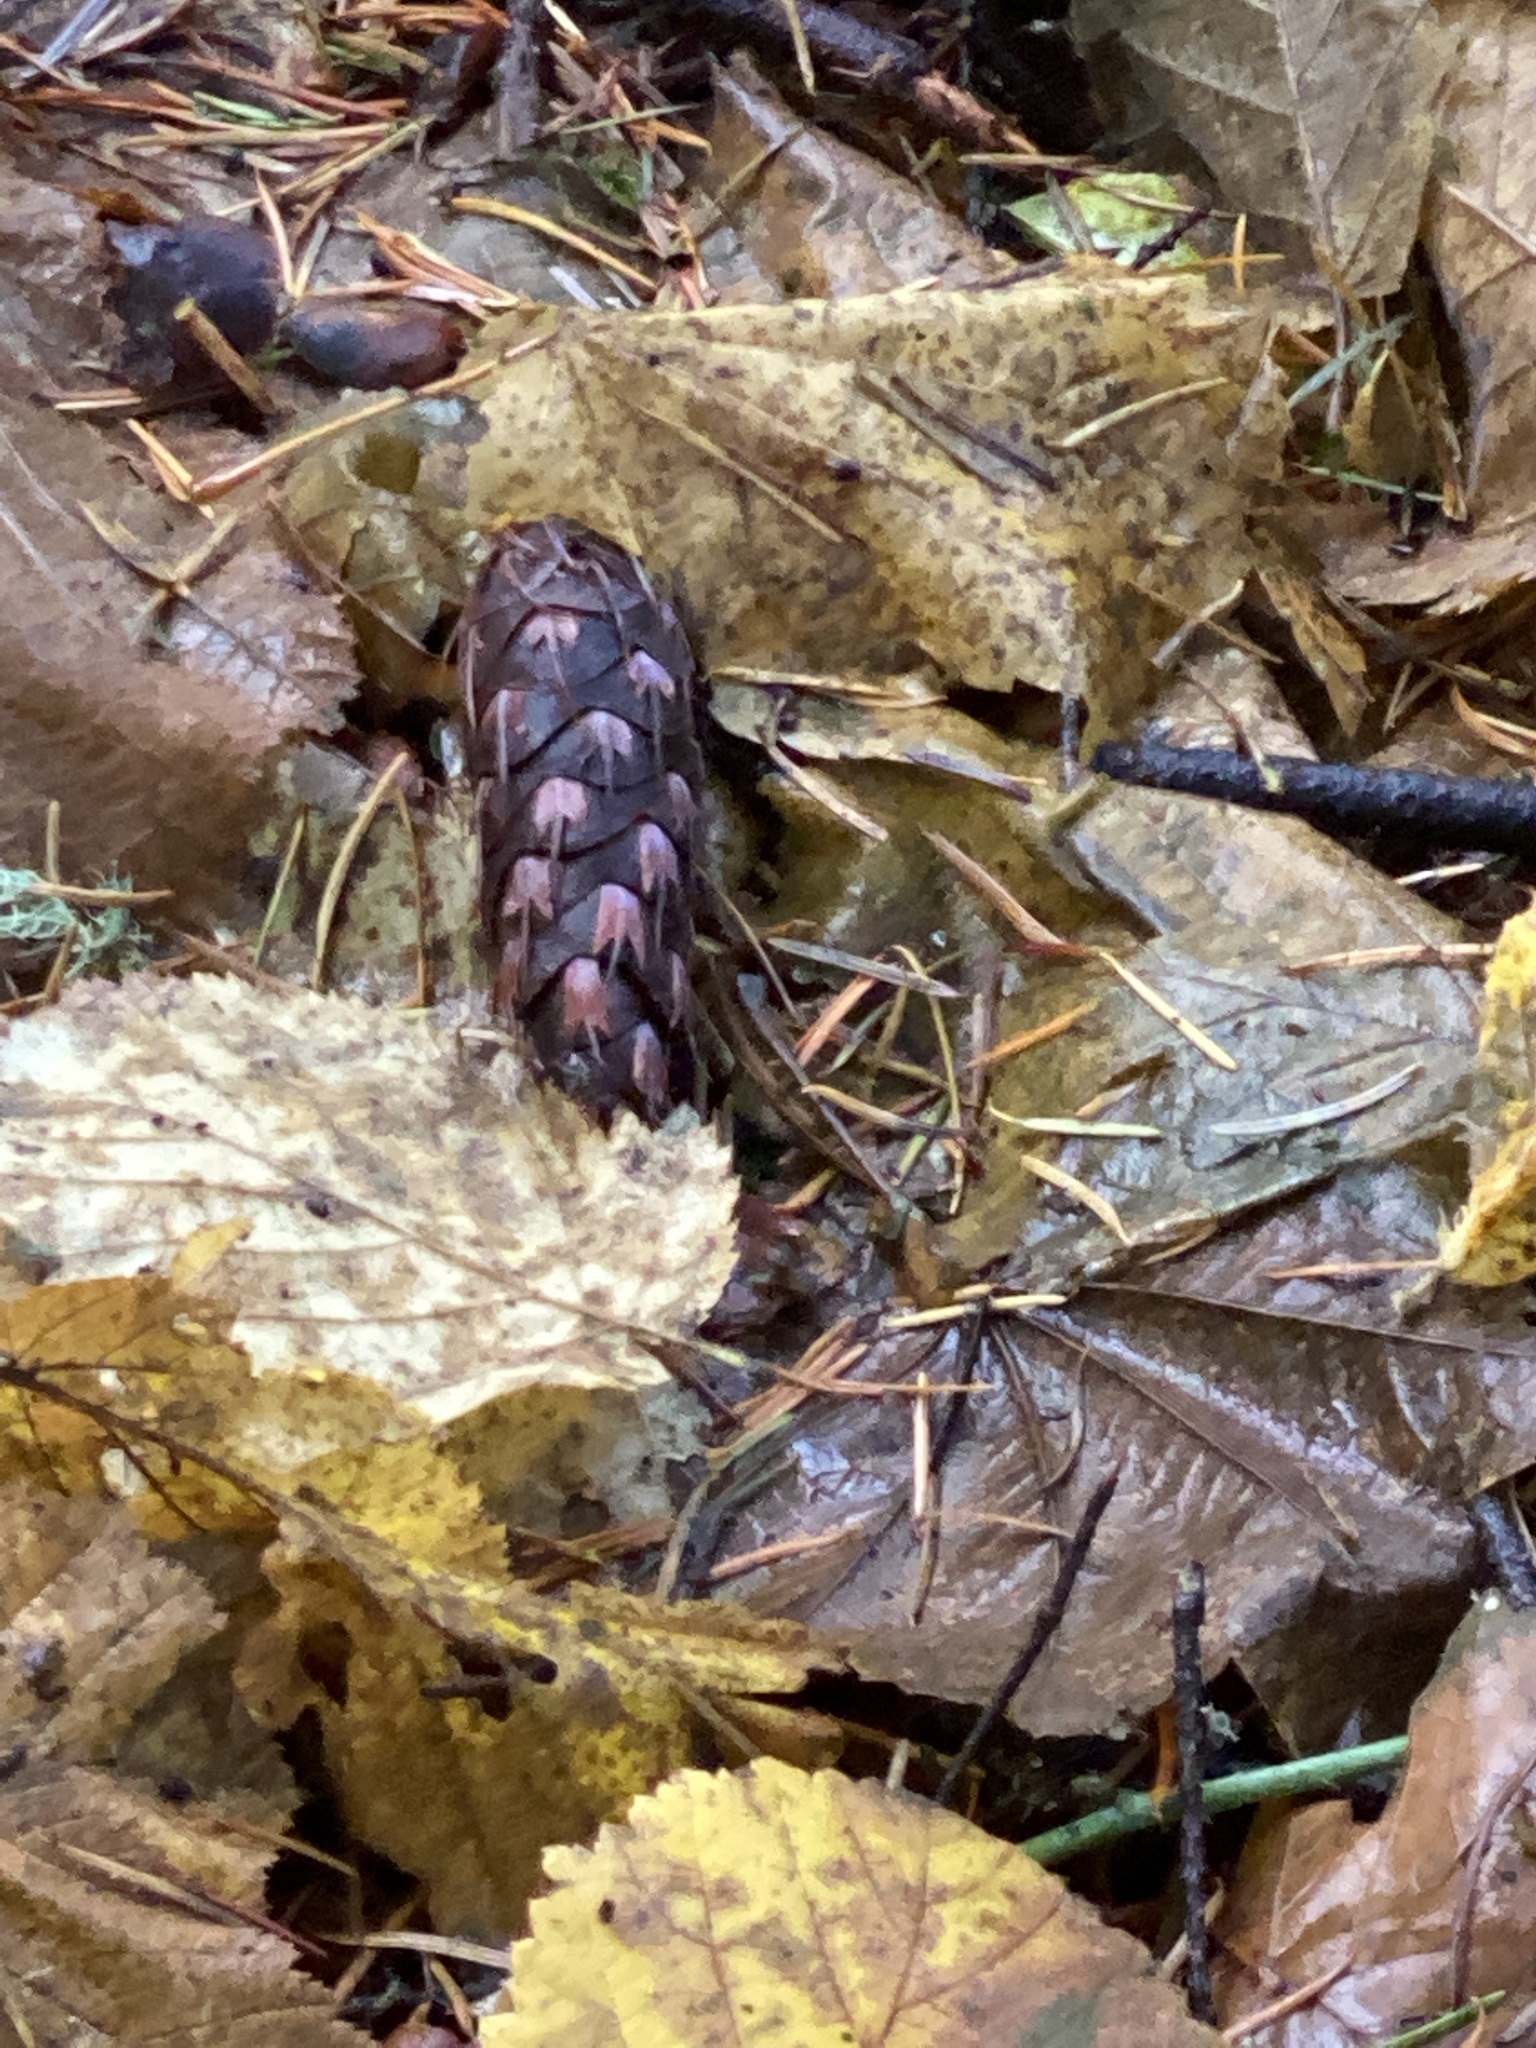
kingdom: Plantae
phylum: Tracheophyta
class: Pinopsida
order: Pinales
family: Pinaceae
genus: Pseudotsuga
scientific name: Pseudotsuga menziesii
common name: Douglas fir
